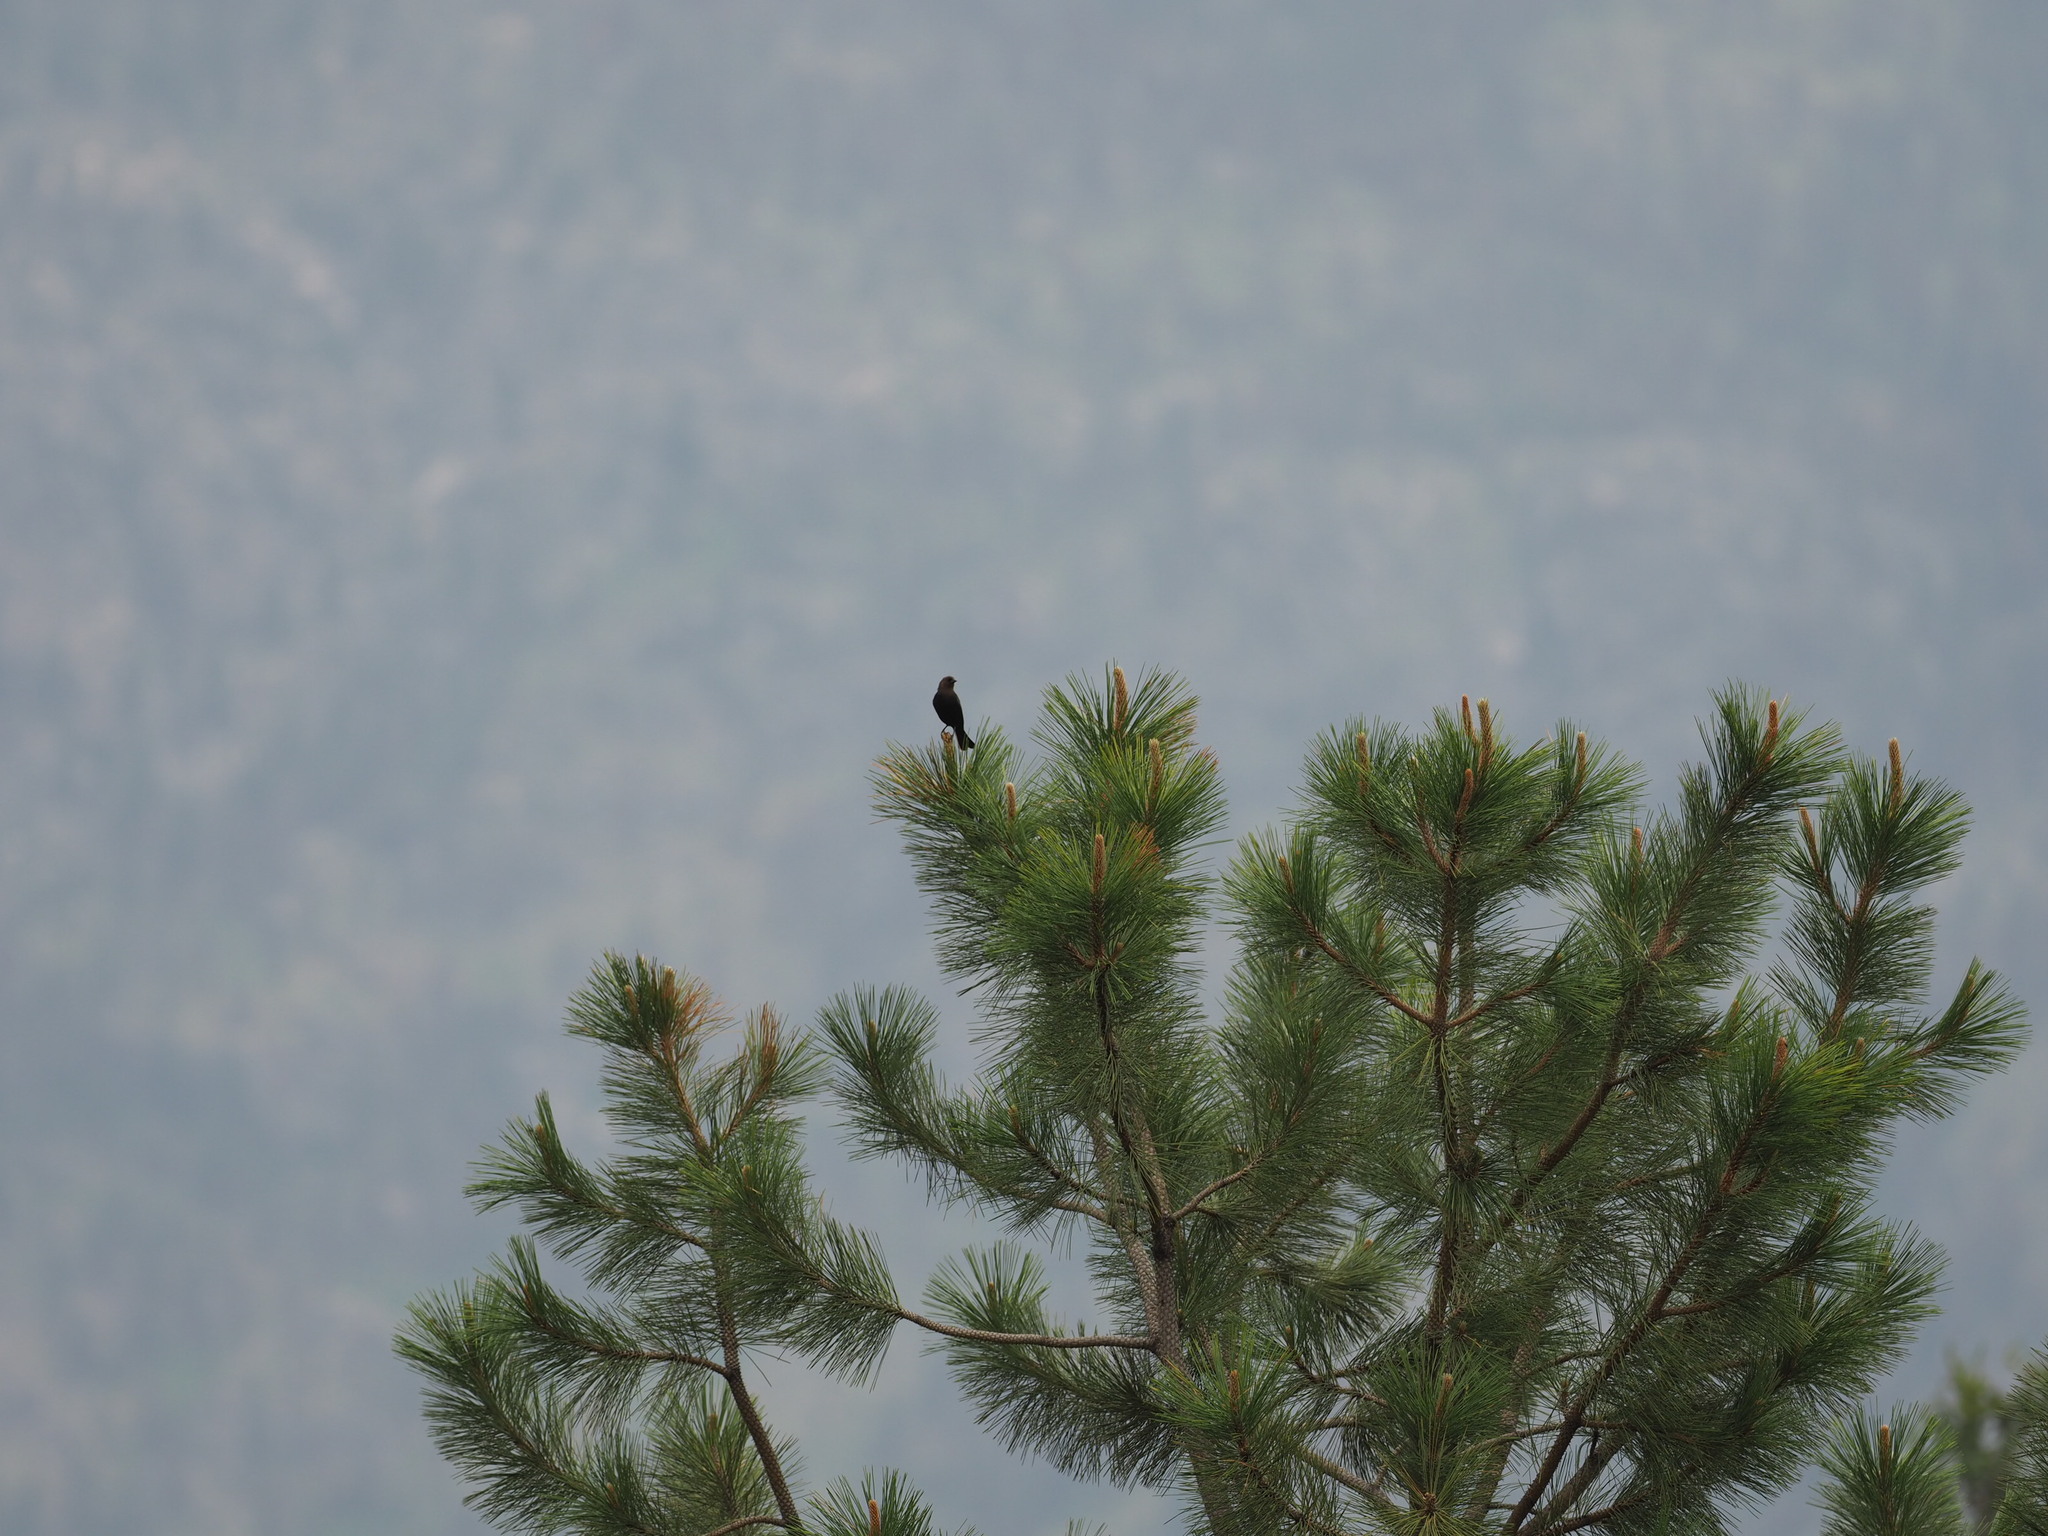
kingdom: Animalia
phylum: Chordata
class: Aves
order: Passeriformes
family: Icteridae
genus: Molothrus
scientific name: Molothrus ater
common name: Brown-headed cowbird
